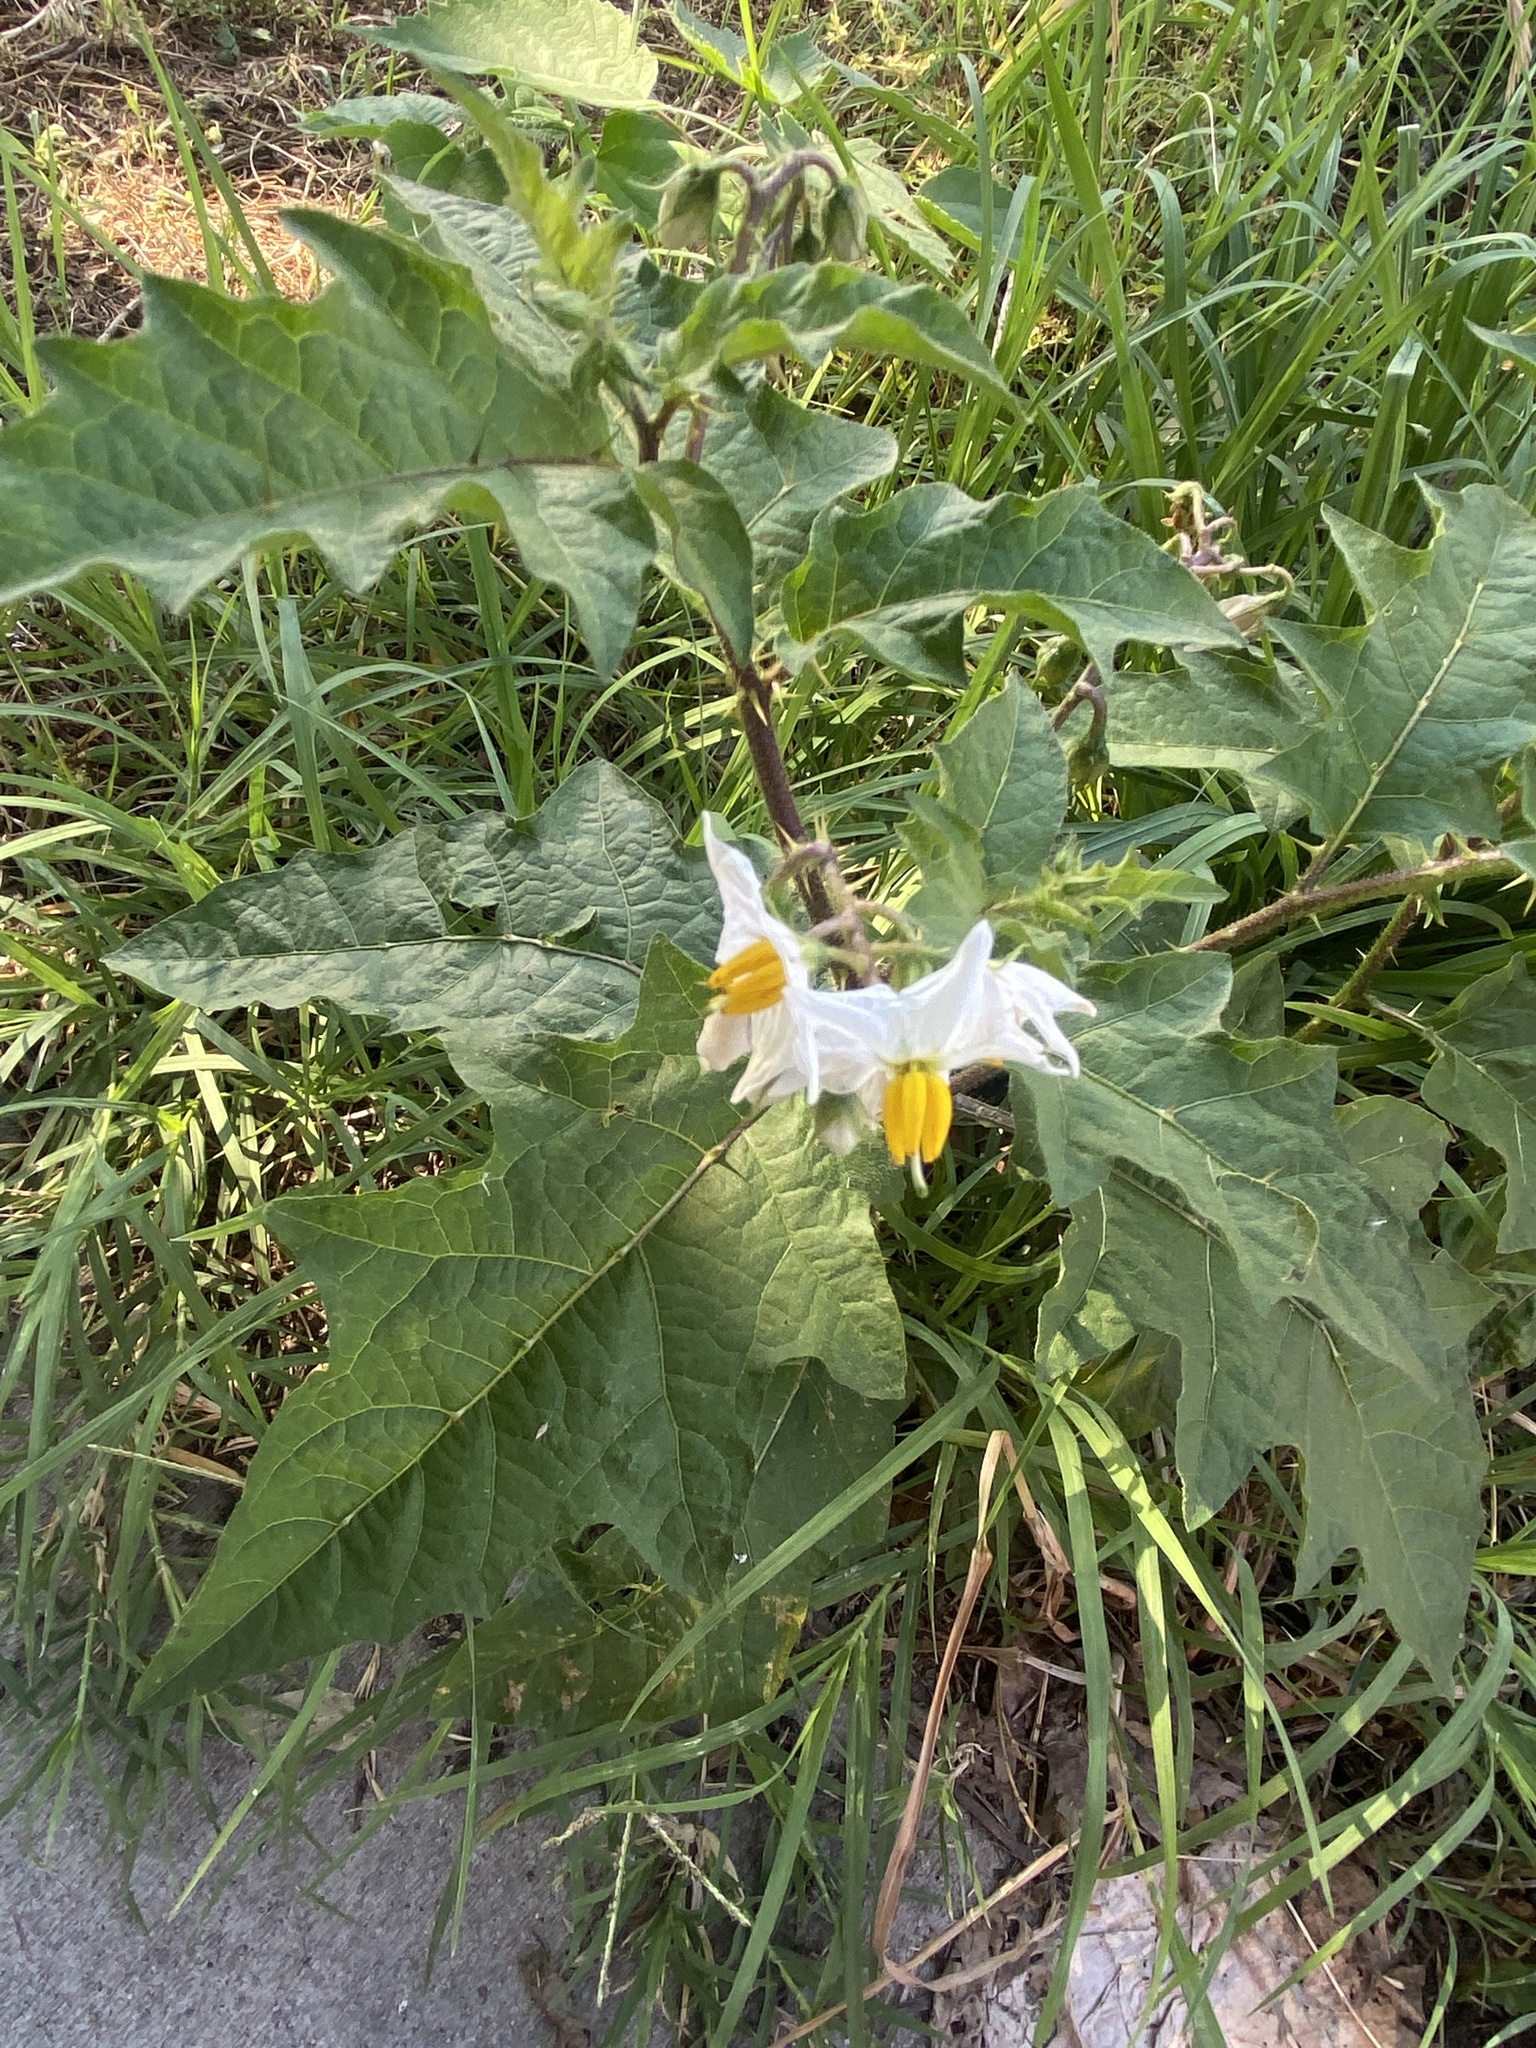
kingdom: Plantae
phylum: Tracheophyta
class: Magnoliopsida
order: Solanales
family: Solanaceae
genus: Solanum
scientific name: Solanum carolinense
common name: Horse-nettle
